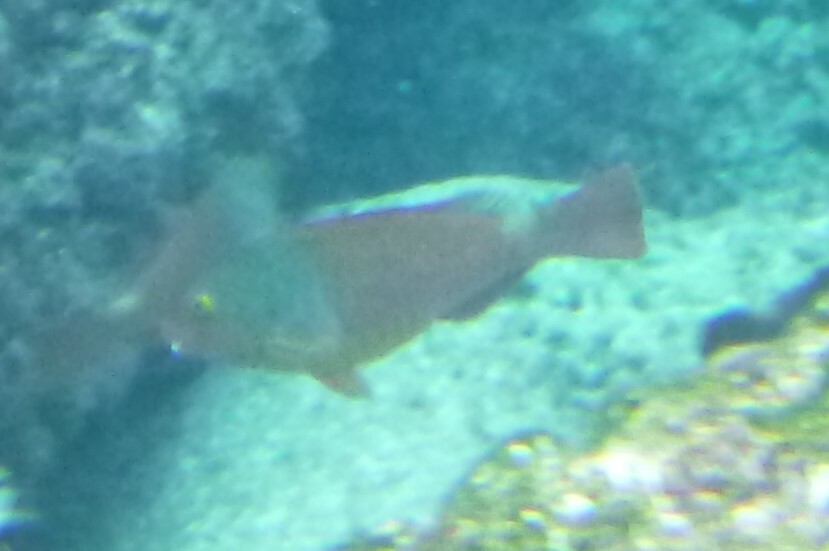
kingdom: Animalia
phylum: Chordata
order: Perciformes
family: Scaridae
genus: Sparisoma
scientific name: Sparisoma cretense
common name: Parrotfish
